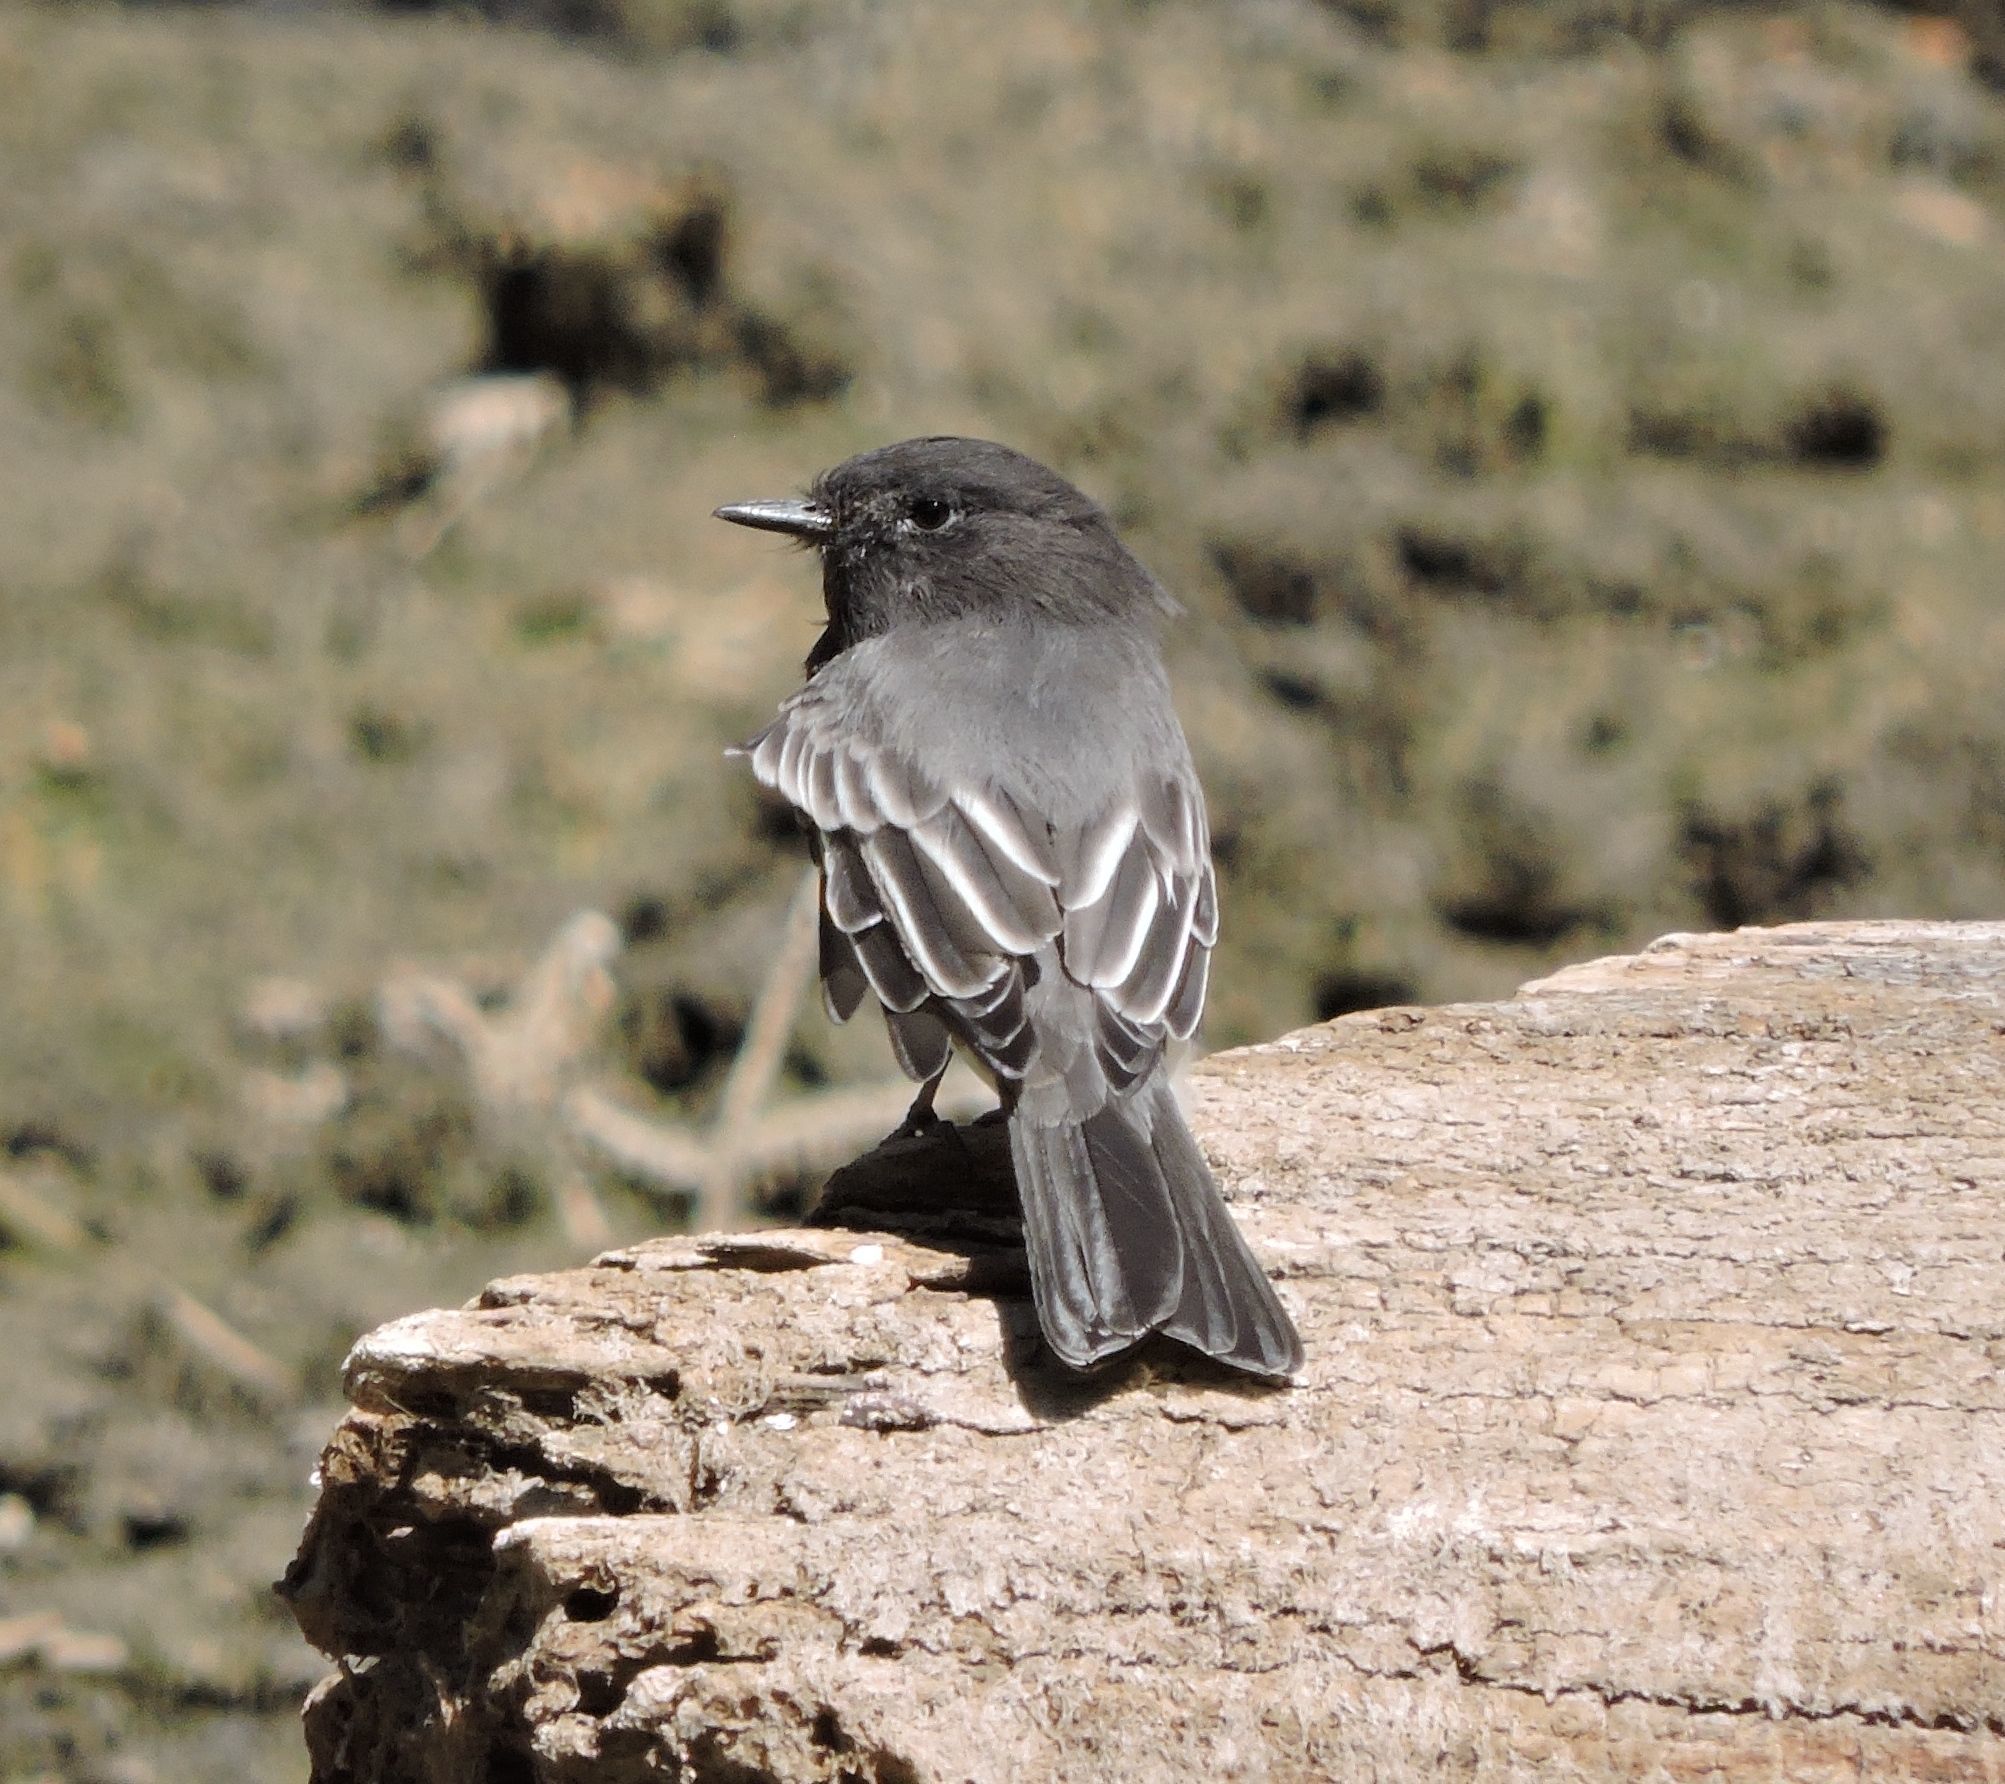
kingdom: Animalia
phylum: Chordata
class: Aves
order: Passeriformes
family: Tyrannidae
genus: Sayornis
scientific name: Sayornis nigricans
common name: Black phoebe
